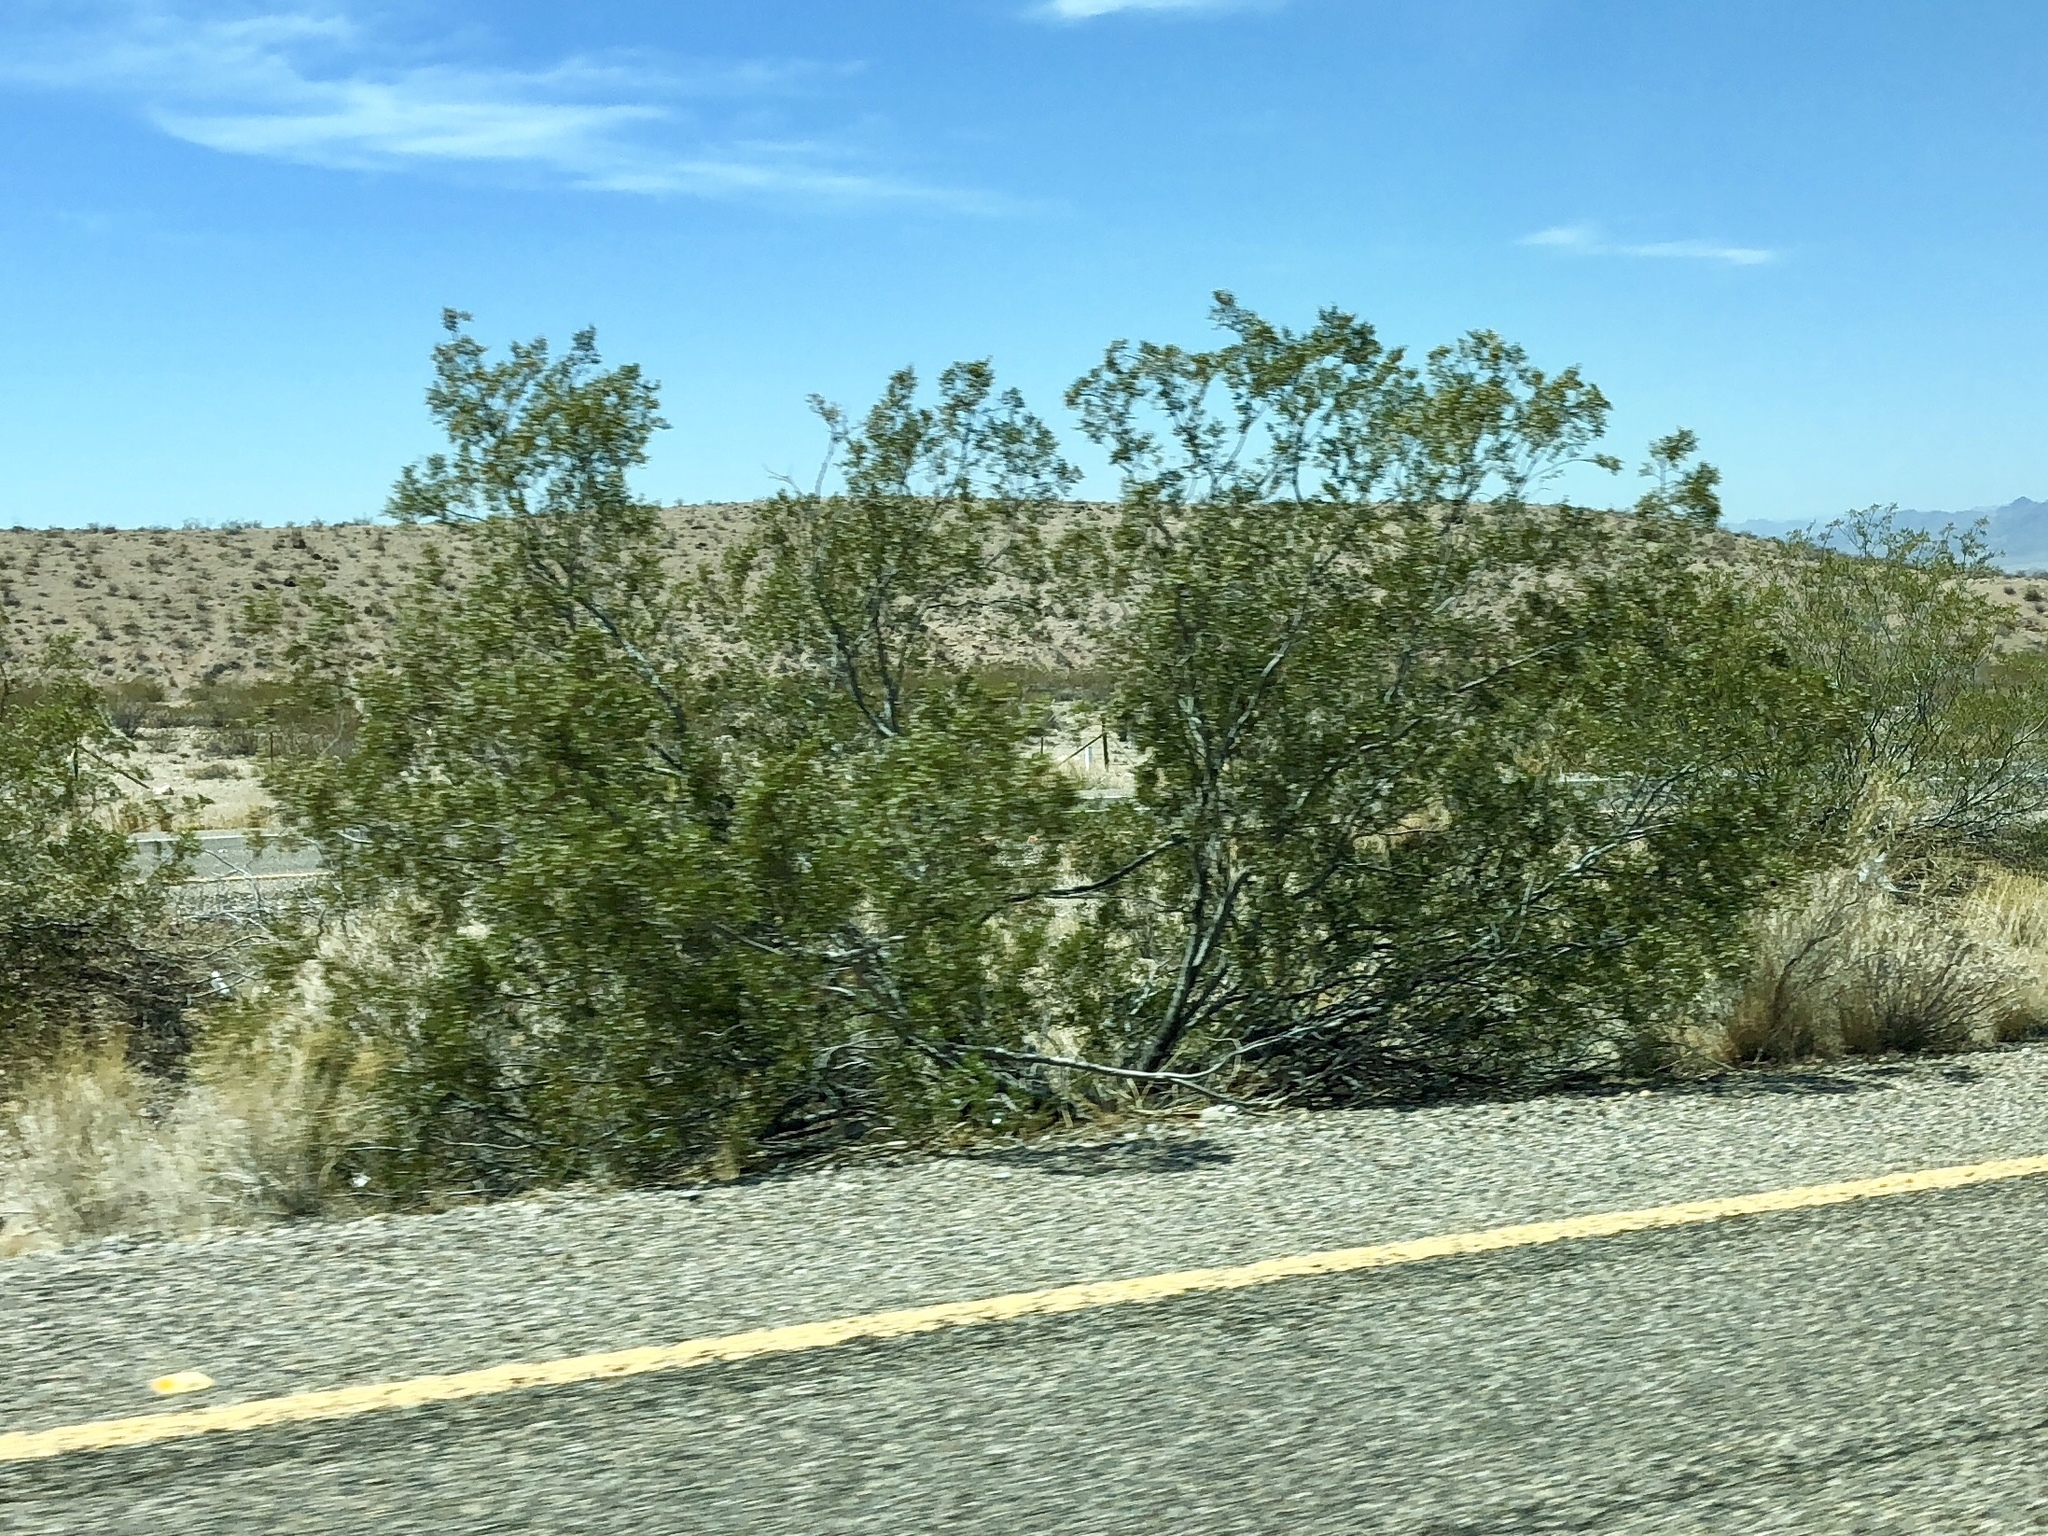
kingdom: Plantae
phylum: Tracheophyta
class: Magnoliopsida
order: Zygophyllales
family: Zygophyllaceae
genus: Larrea
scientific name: Larrea tridentata
